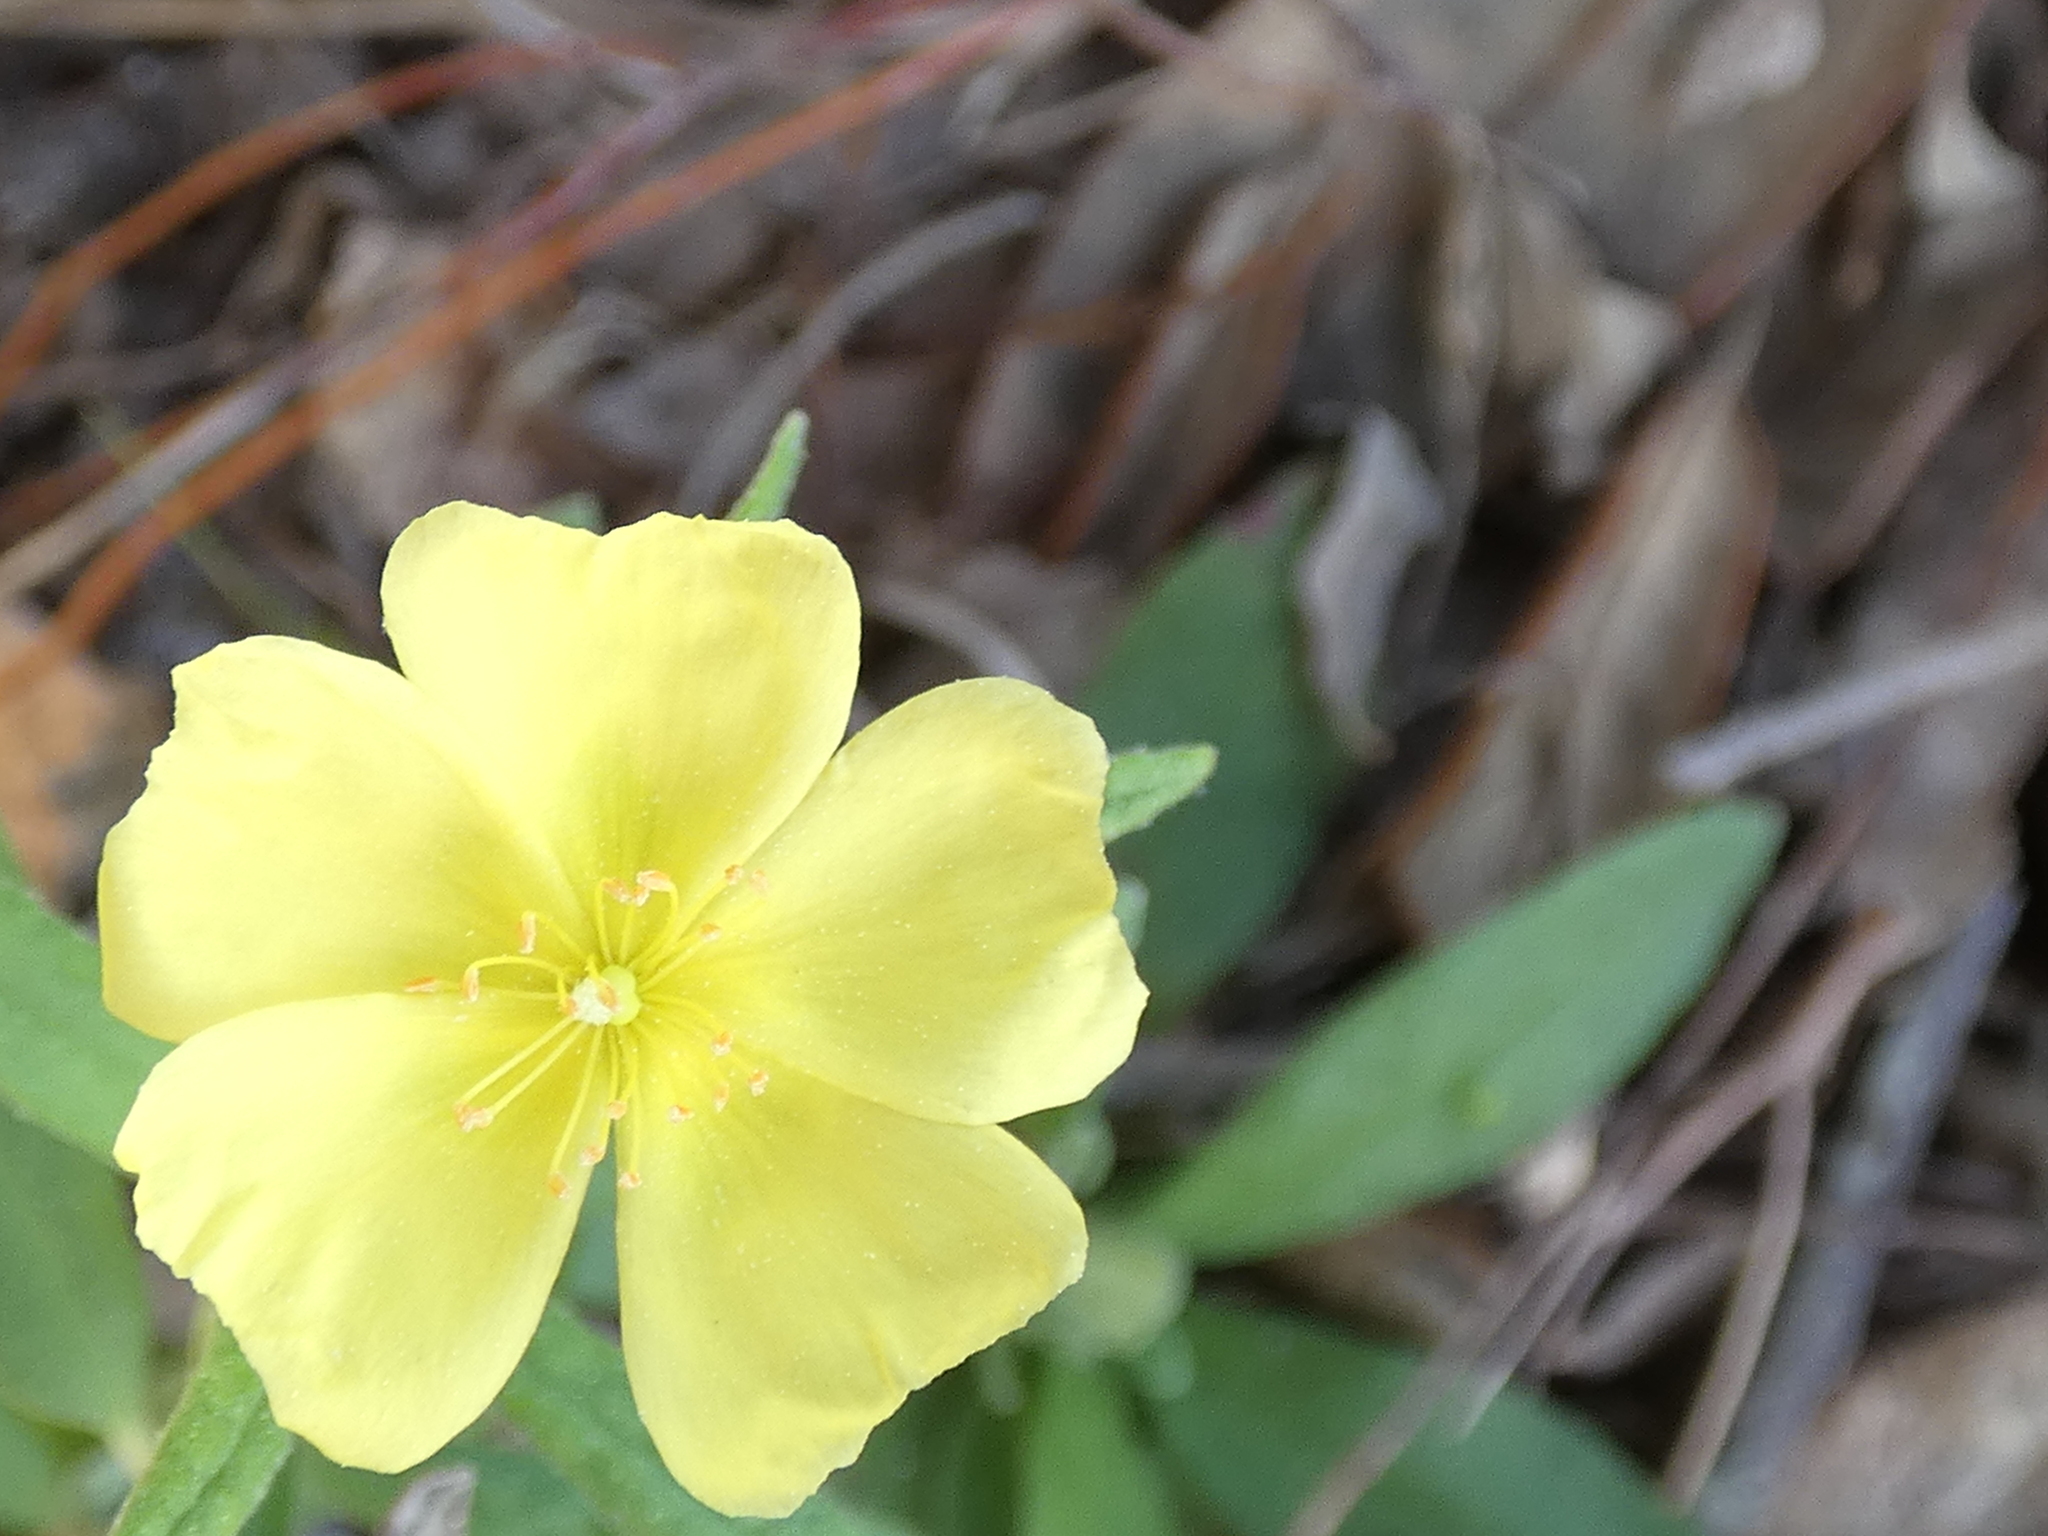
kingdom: Plantae
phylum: Tracheophyta
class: Magnoliopsida
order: Malvales
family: Cistaceae
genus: Crocanthemum
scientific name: Crocanthemum corymbosum
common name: Pinebarren sun-rose
